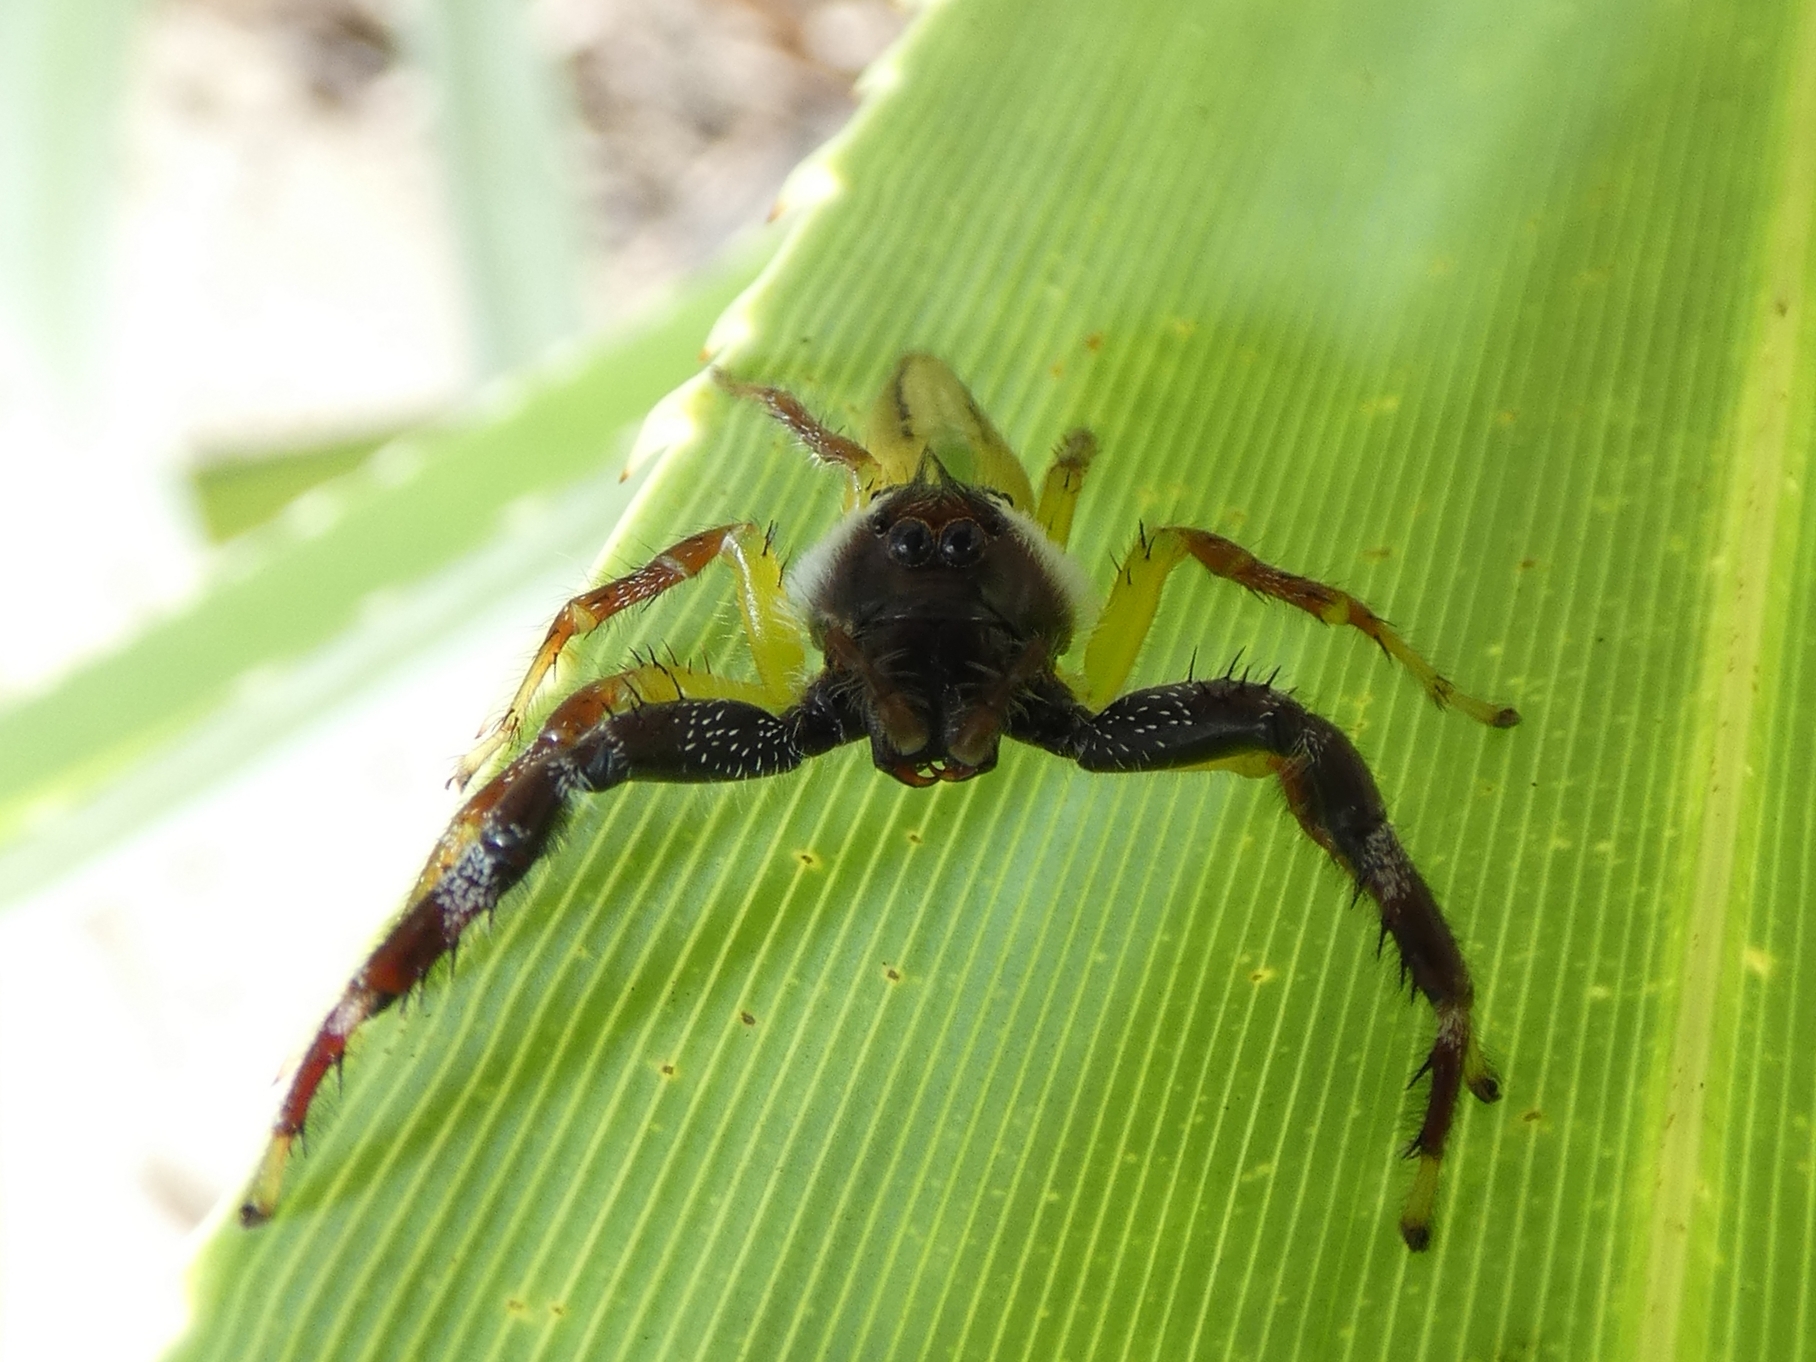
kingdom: Animalia
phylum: Arthropoda
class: Arachnida
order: Araneae
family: Salticidae
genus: Mopsus
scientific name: Mopsus mormon
